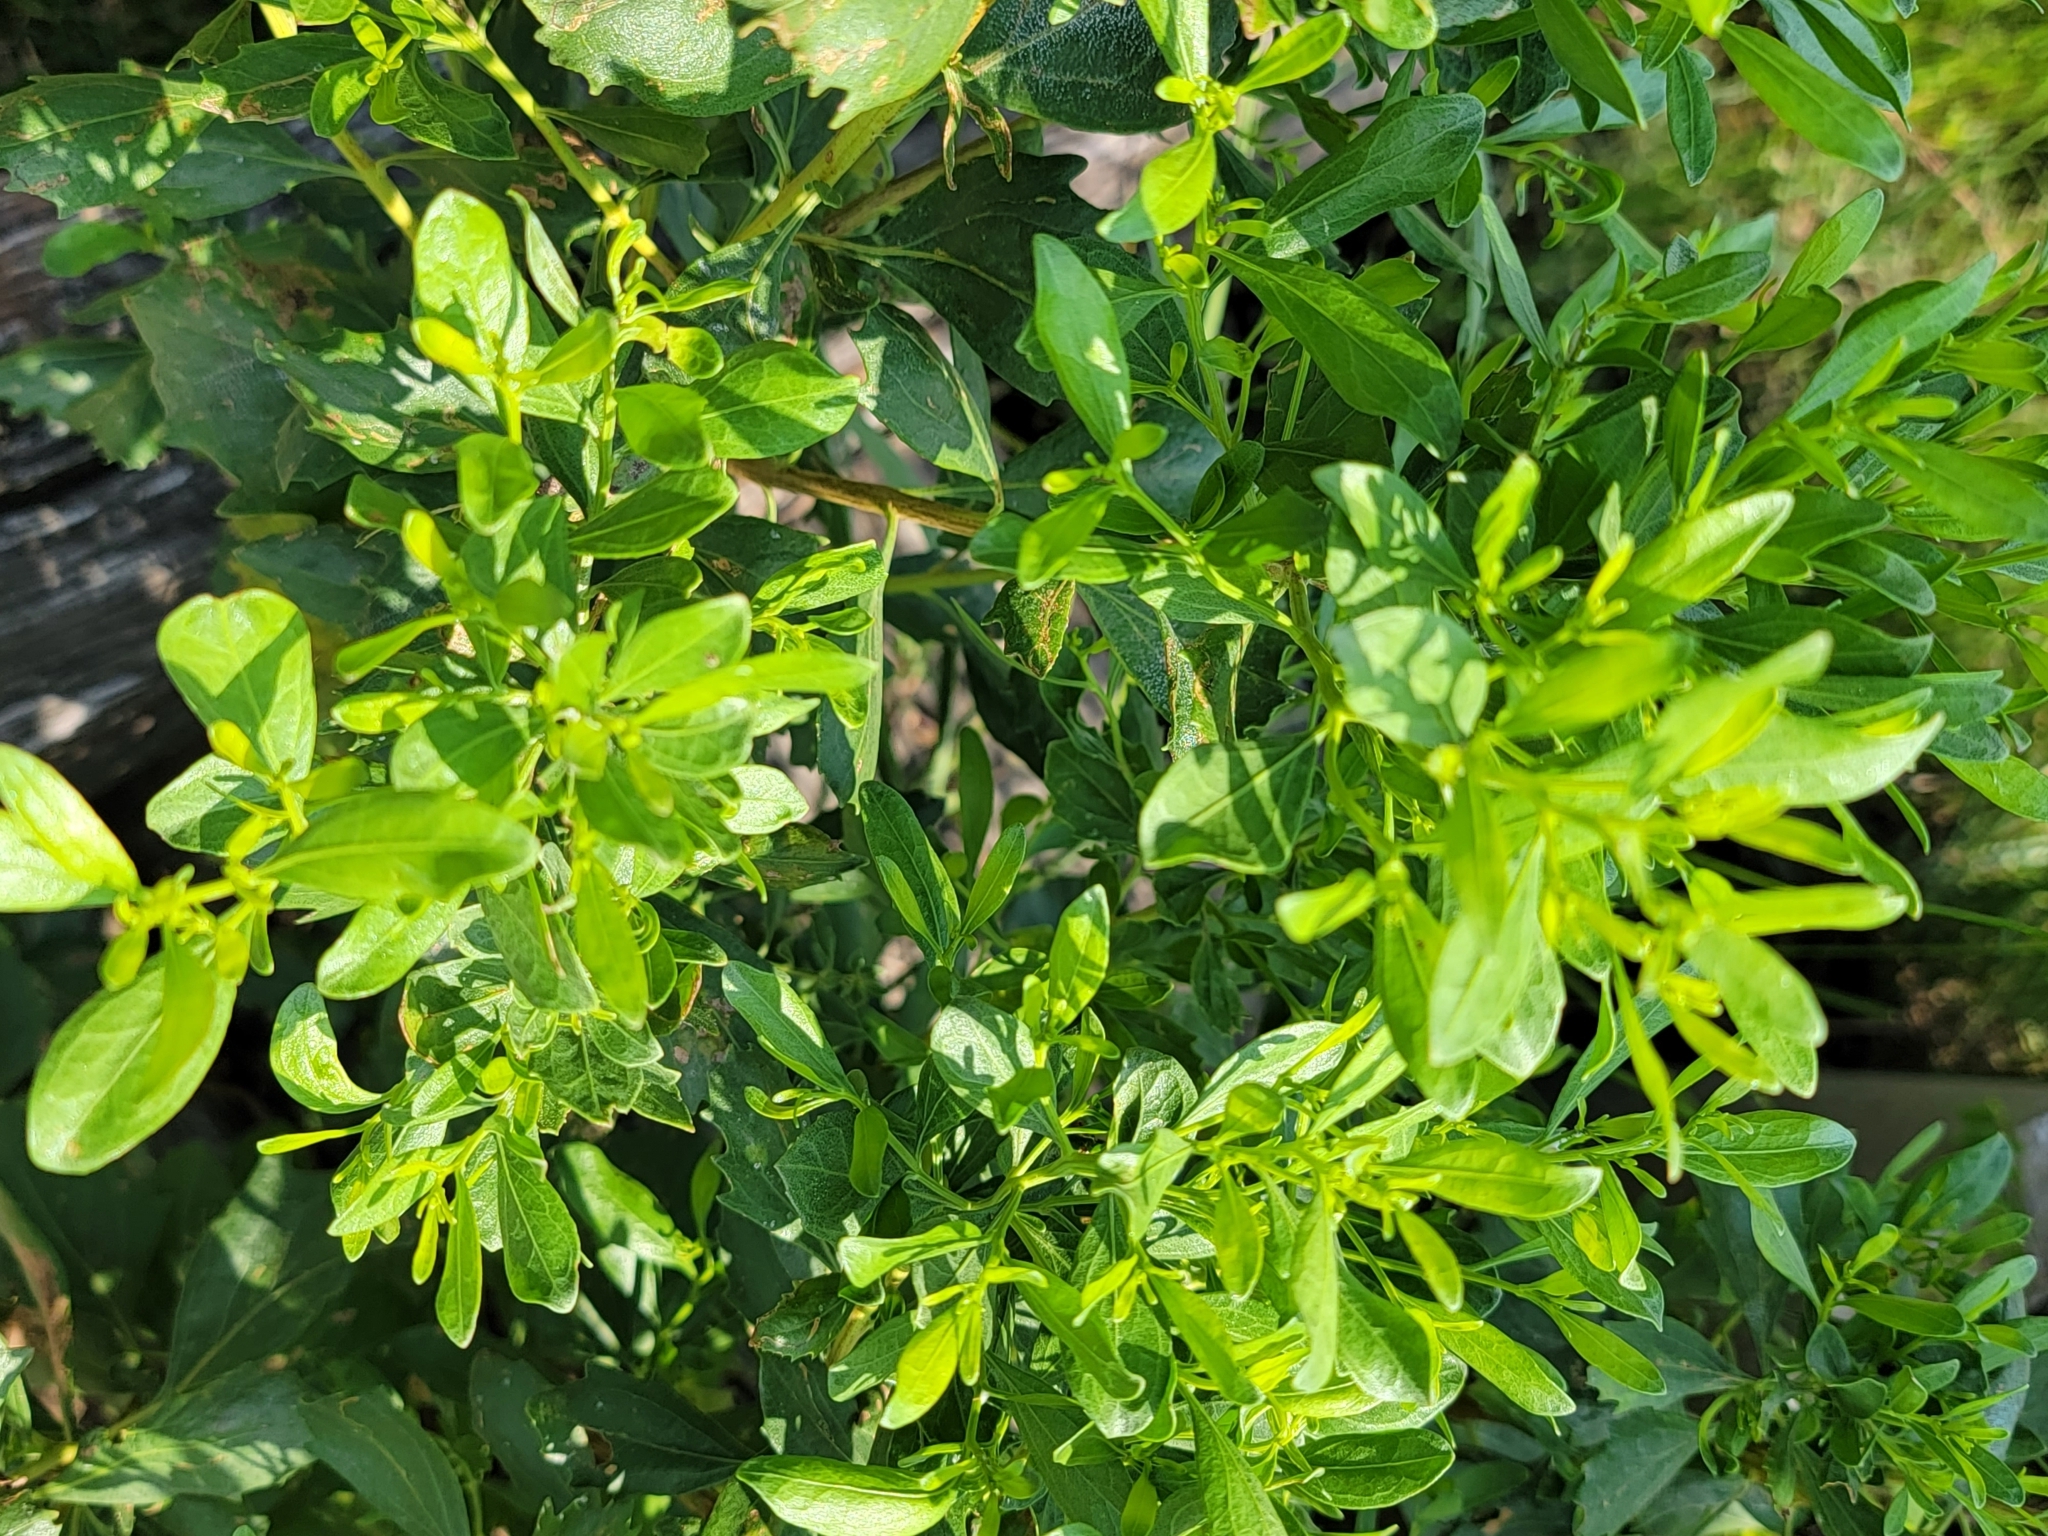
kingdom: Plantae
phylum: Tracheophyta
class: Magnoliopsida
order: Asterales
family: Asteraceae
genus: Baccharis
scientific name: Baccharis halimifolia
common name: Eastern baccharis
